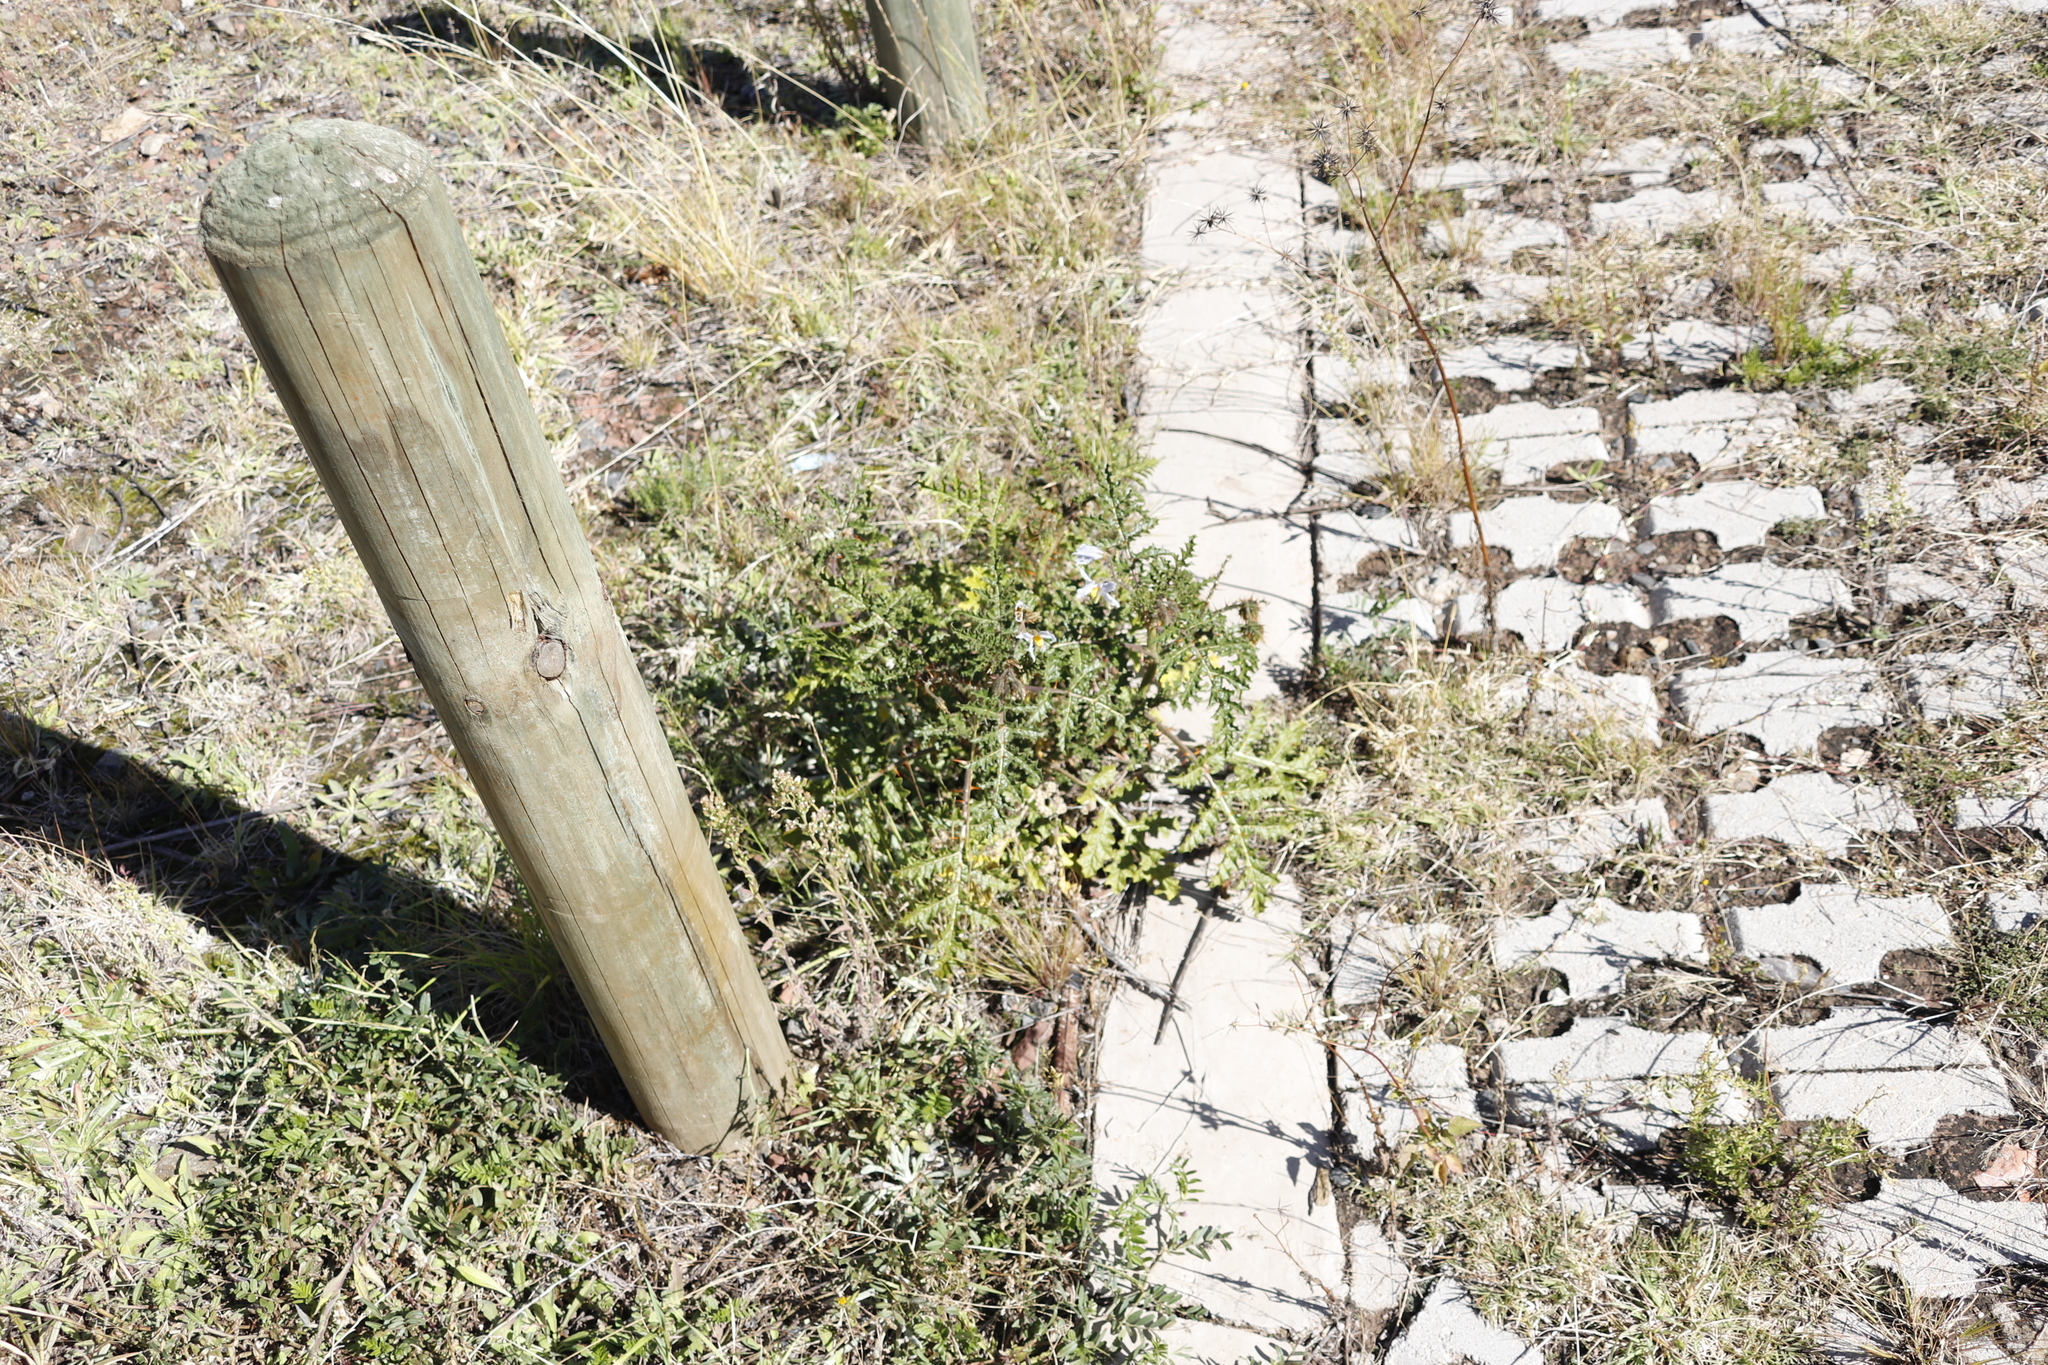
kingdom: Plantae
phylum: Tracheophyta
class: Magnoliopsida
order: Solanales
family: Solanaceae
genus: Solanum
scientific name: Solanum sisymbriifolium
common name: Red buffalo-bur
